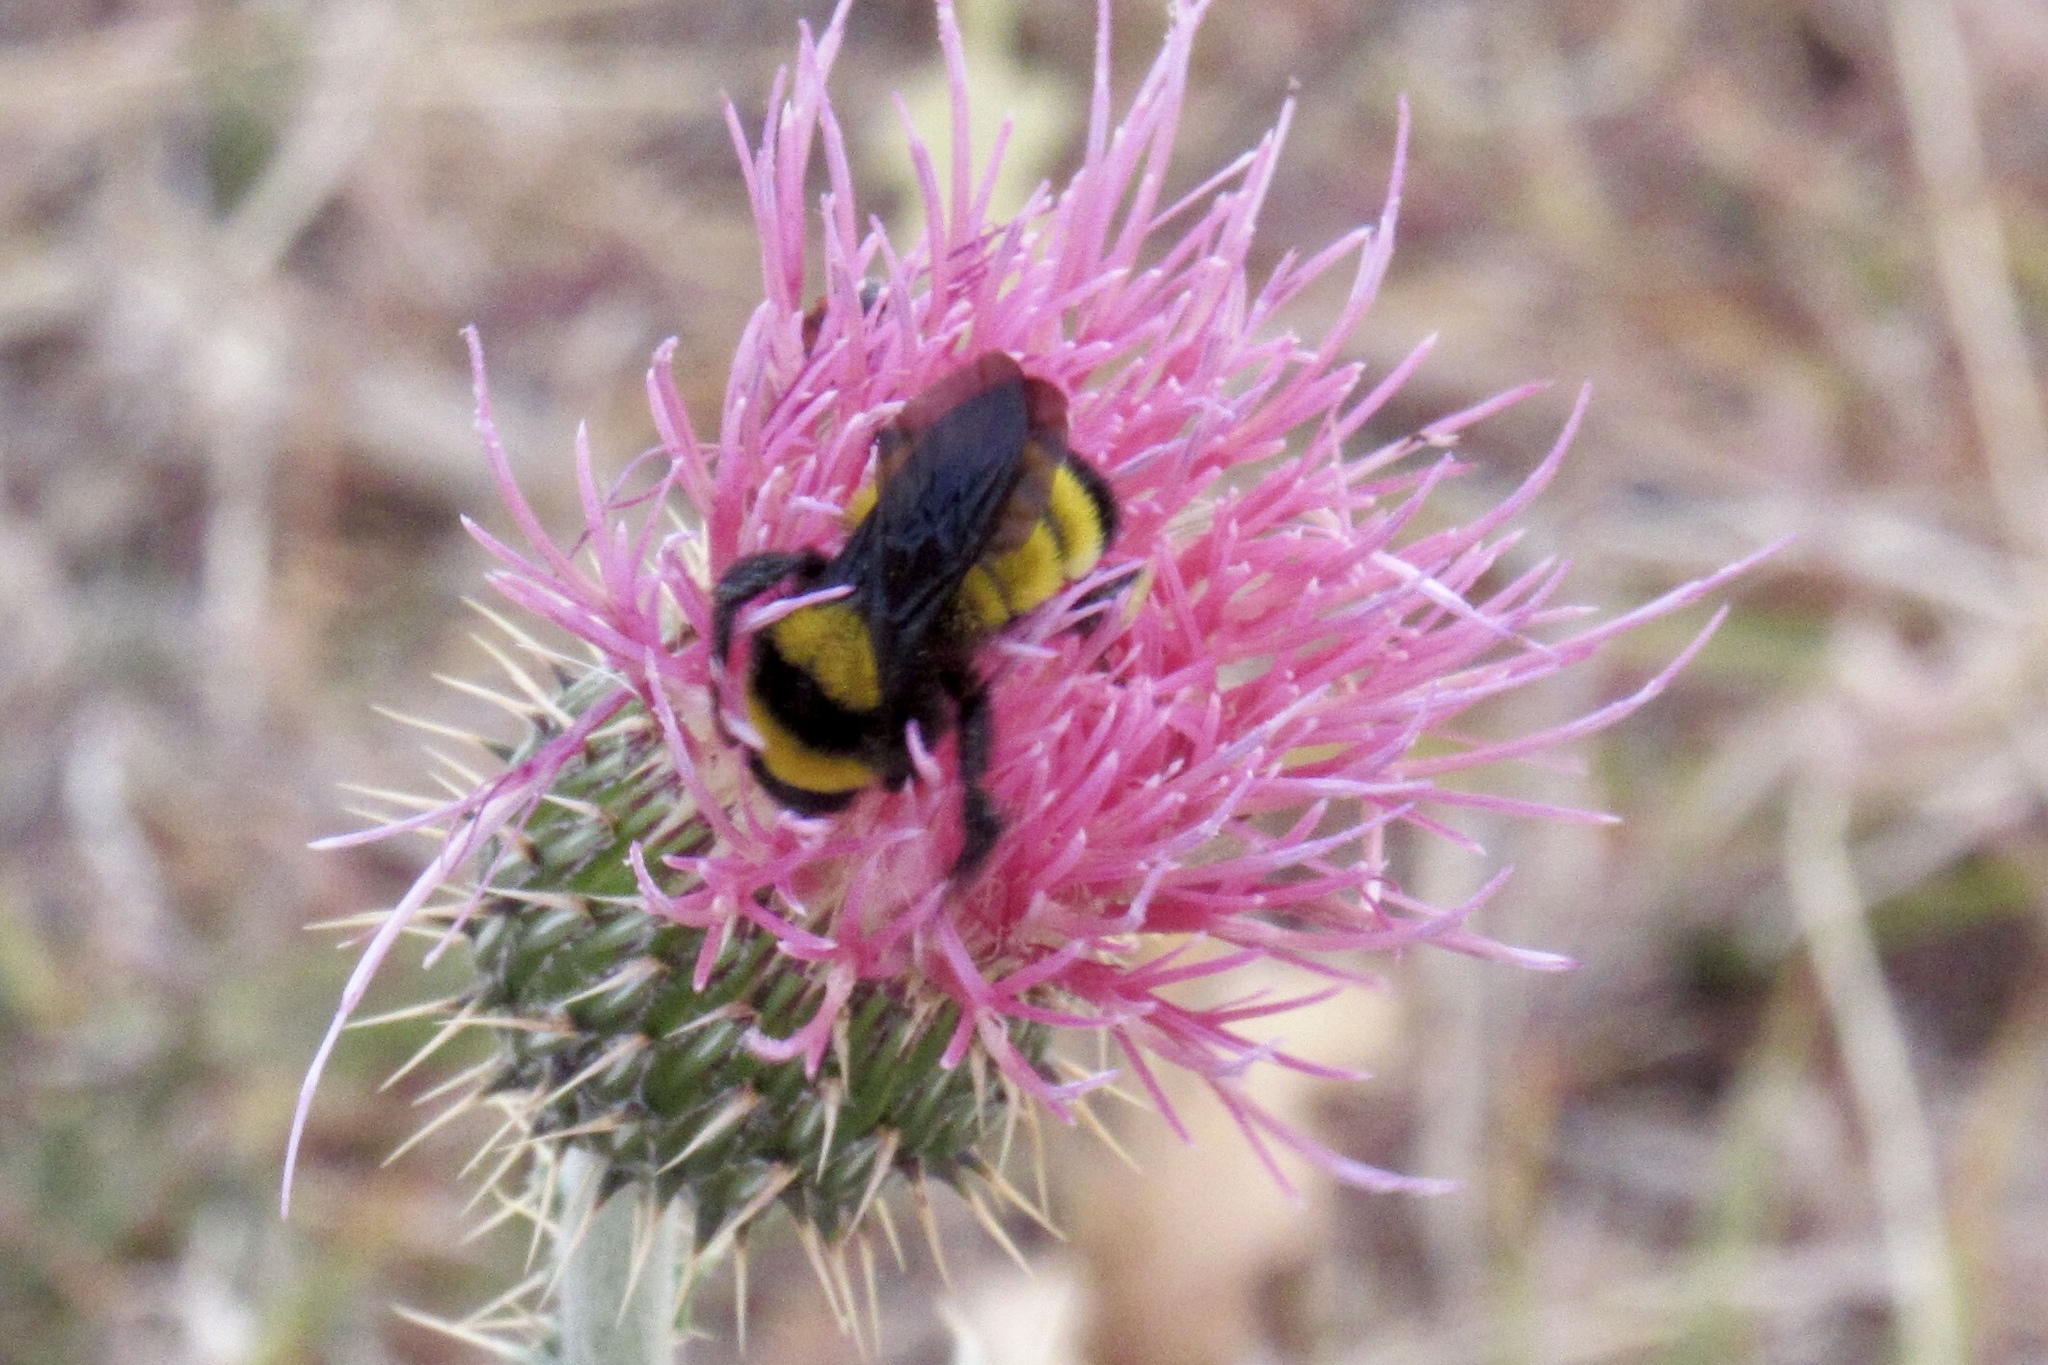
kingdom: Animalia
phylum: Arthropoda
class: Insecta
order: Hymenoptera
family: Apidae
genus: Bombus
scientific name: Bombus sonorus
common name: Sonoran bumble bee
